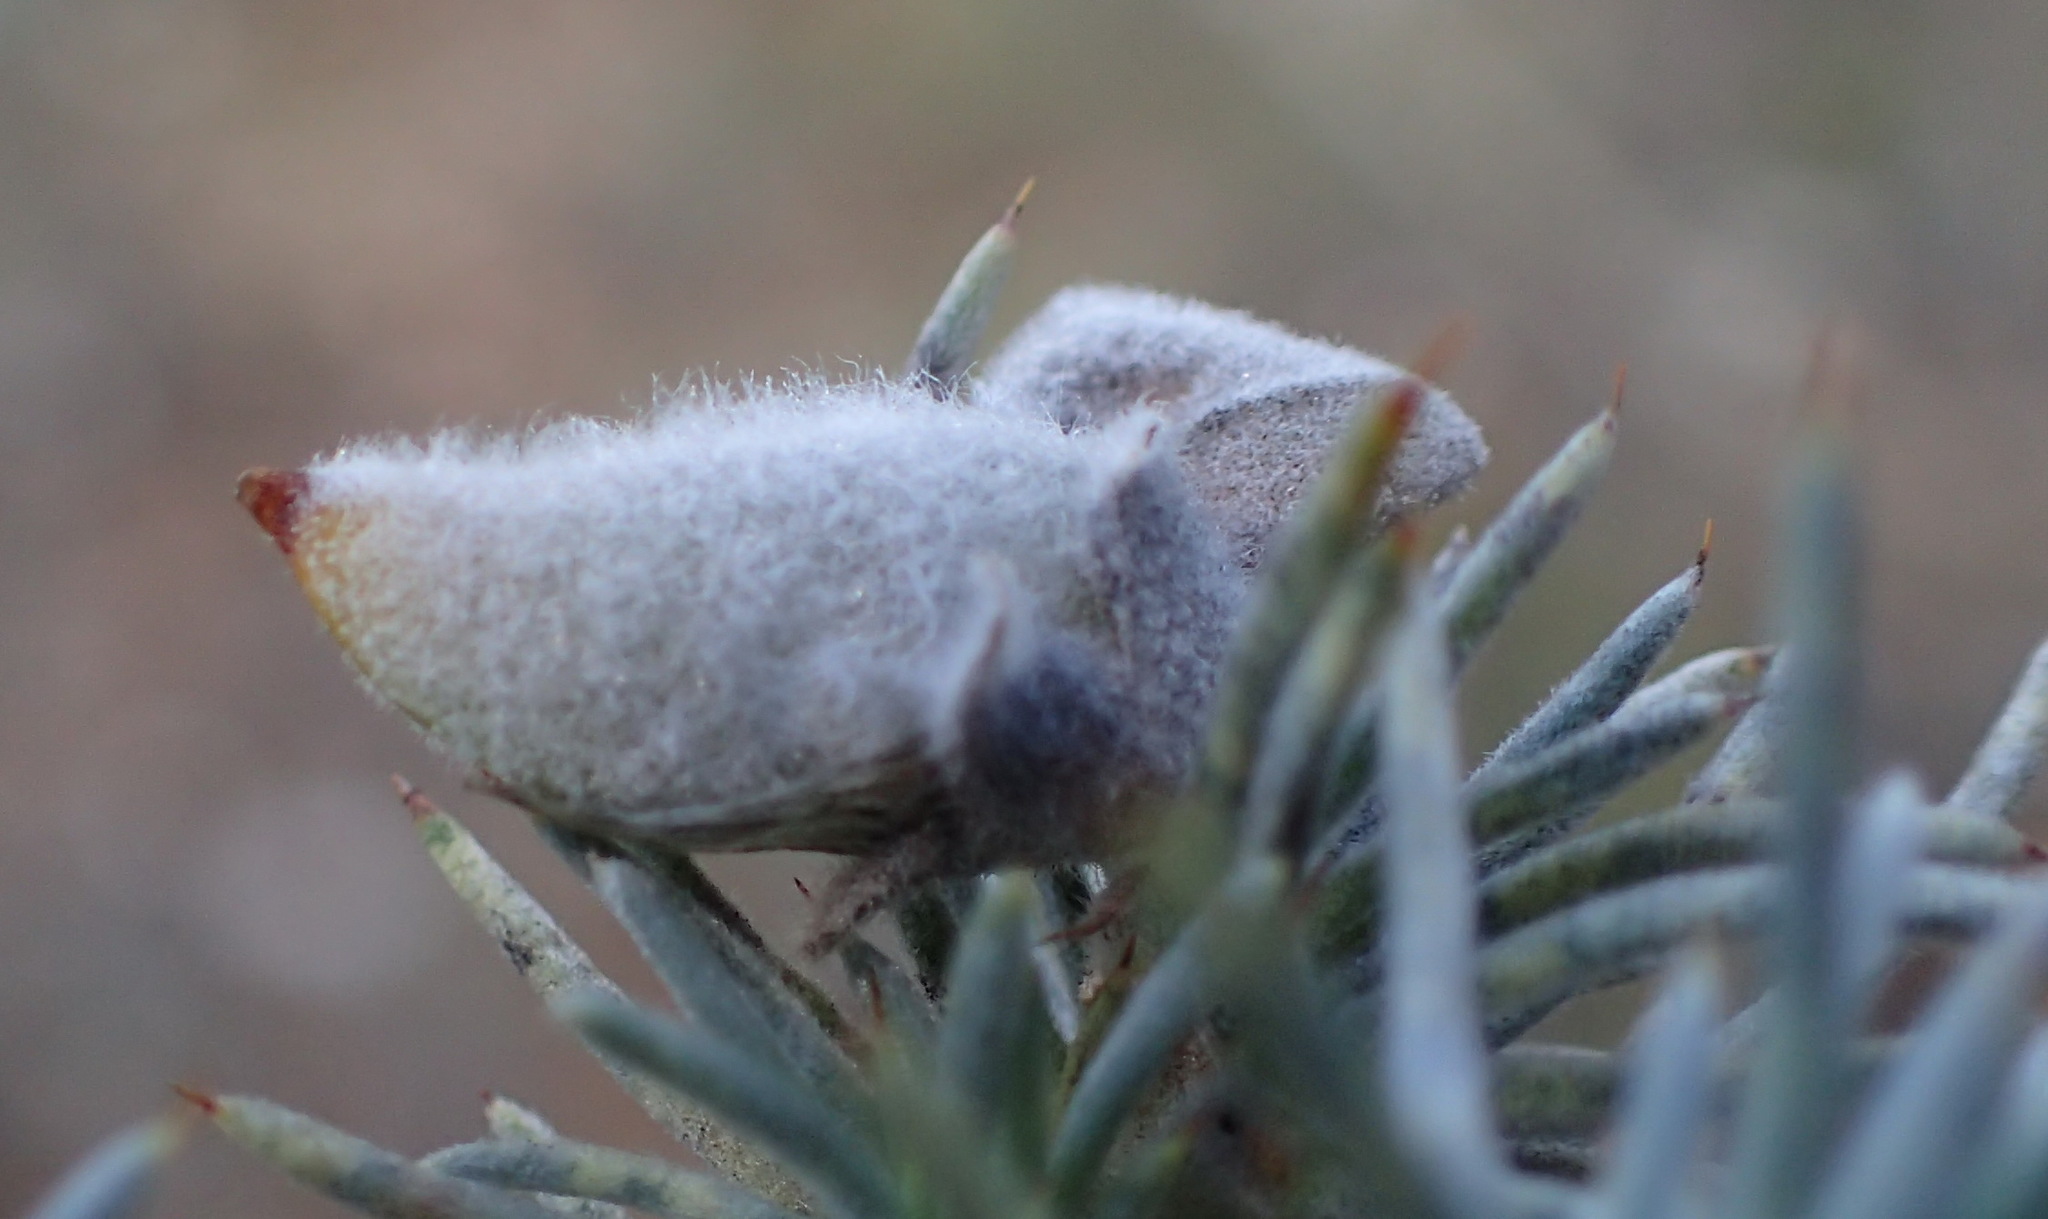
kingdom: Plantae
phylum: Tracheophyta
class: Magnoliopsida
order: Fabales
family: Fabaceae
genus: Aspalathus
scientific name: Aspalathus hystrix
